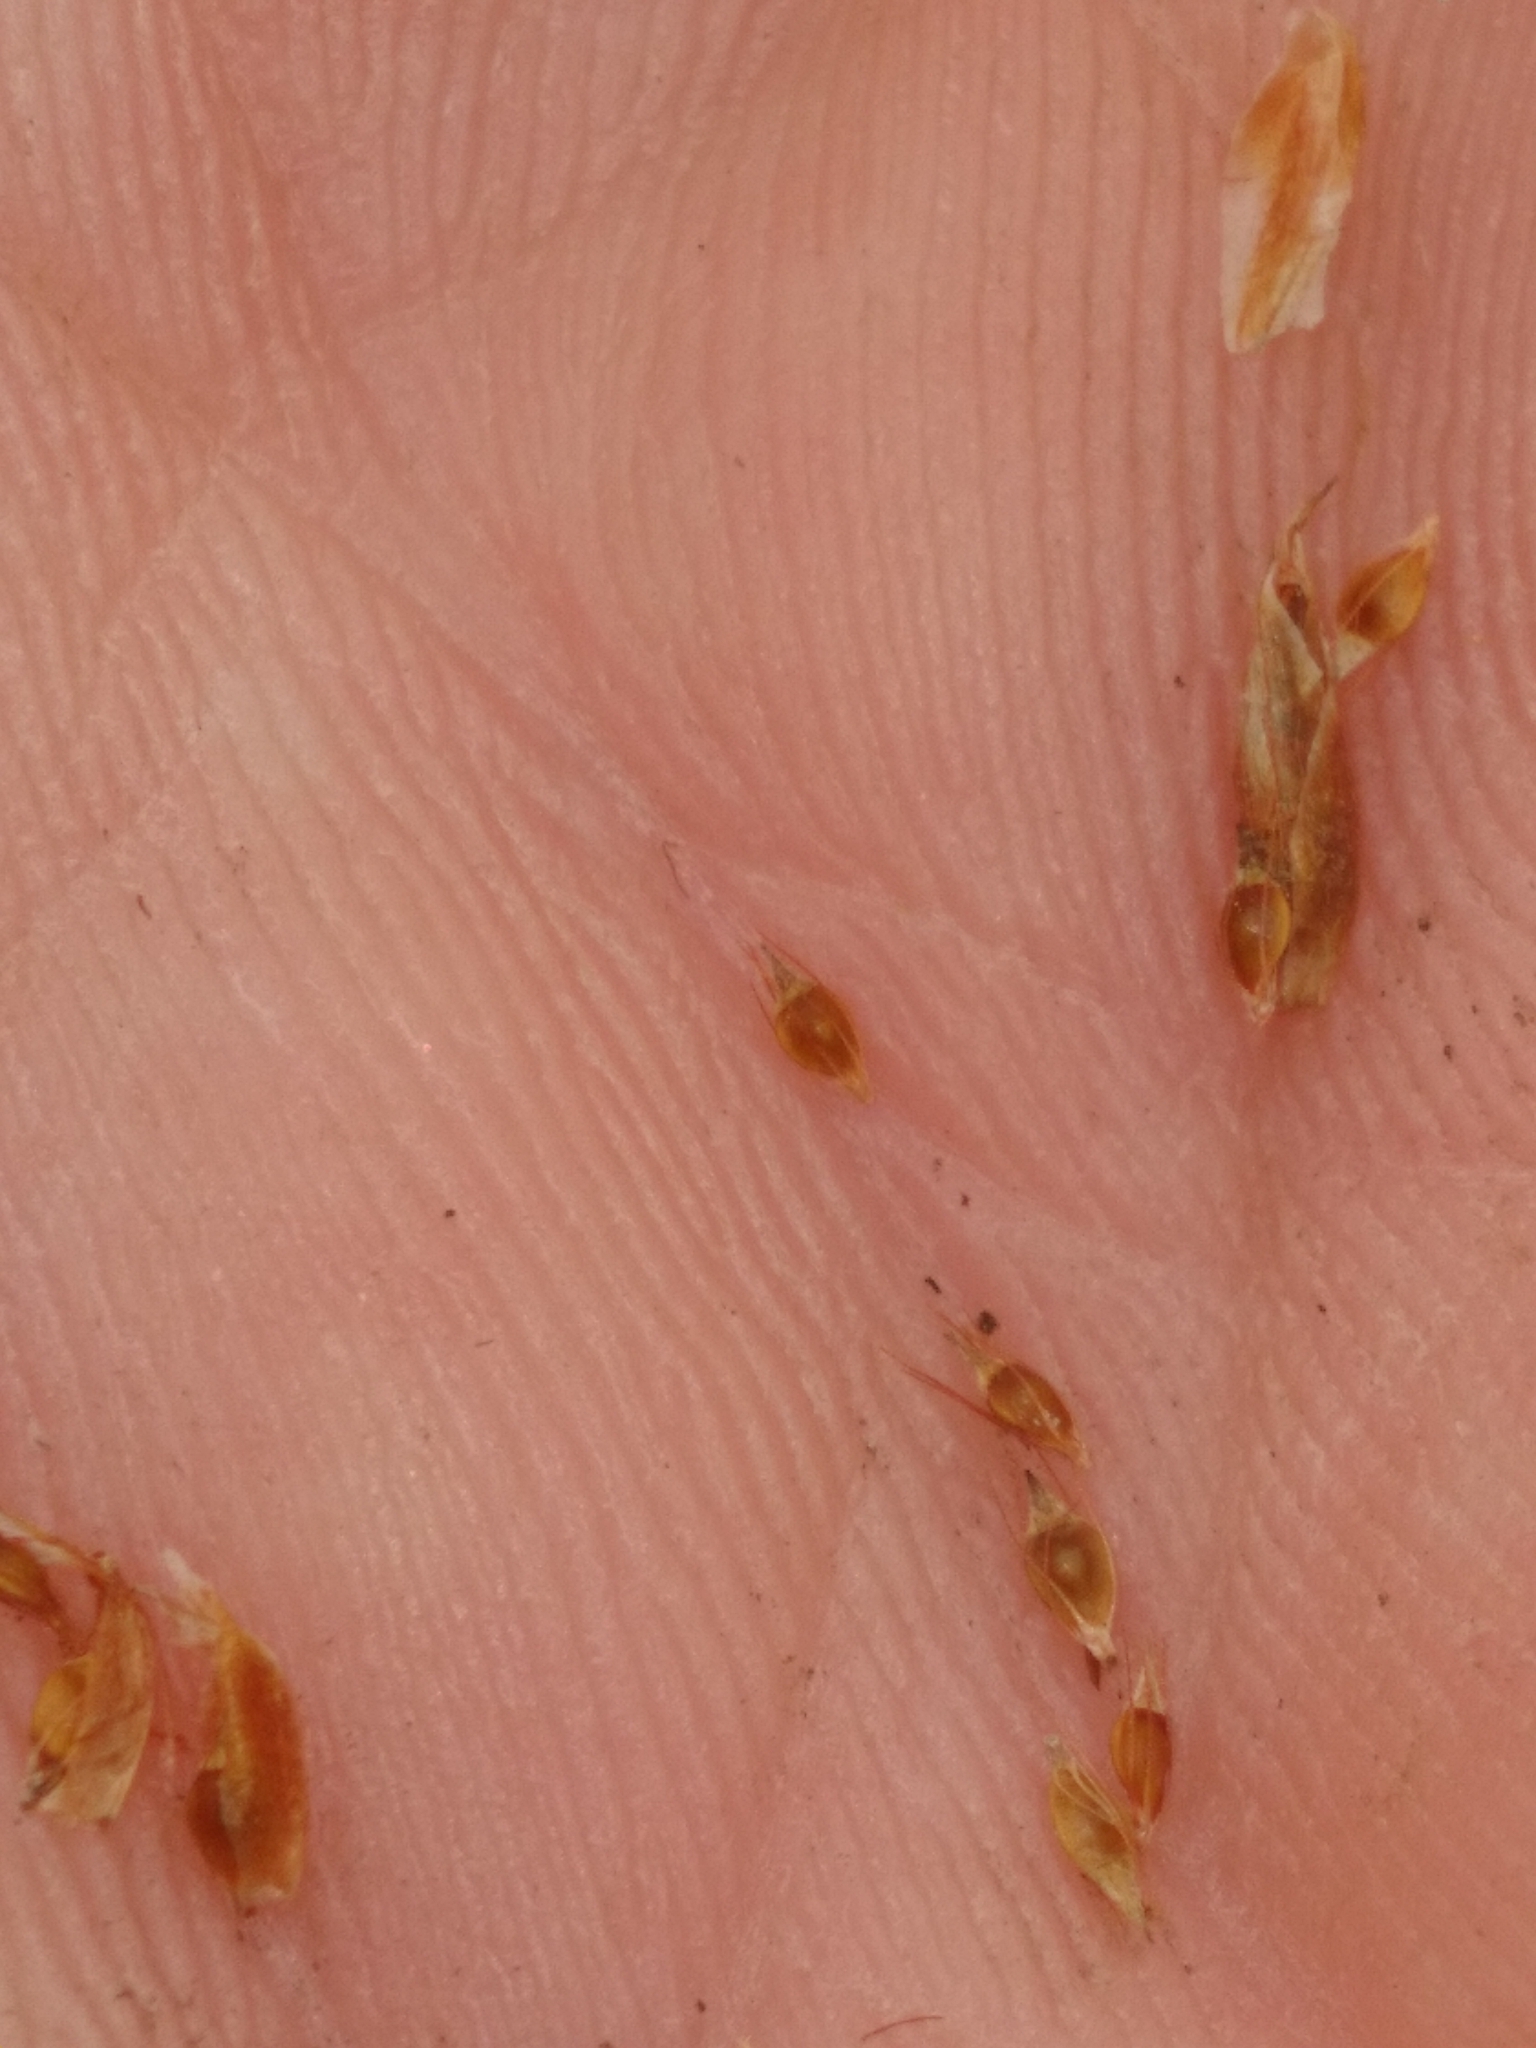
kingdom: Plantae
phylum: Tracheophyta
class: Liliopsida
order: Poales
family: Cyperaceae
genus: Rhynchospora
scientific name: Rhynchospora harperi
